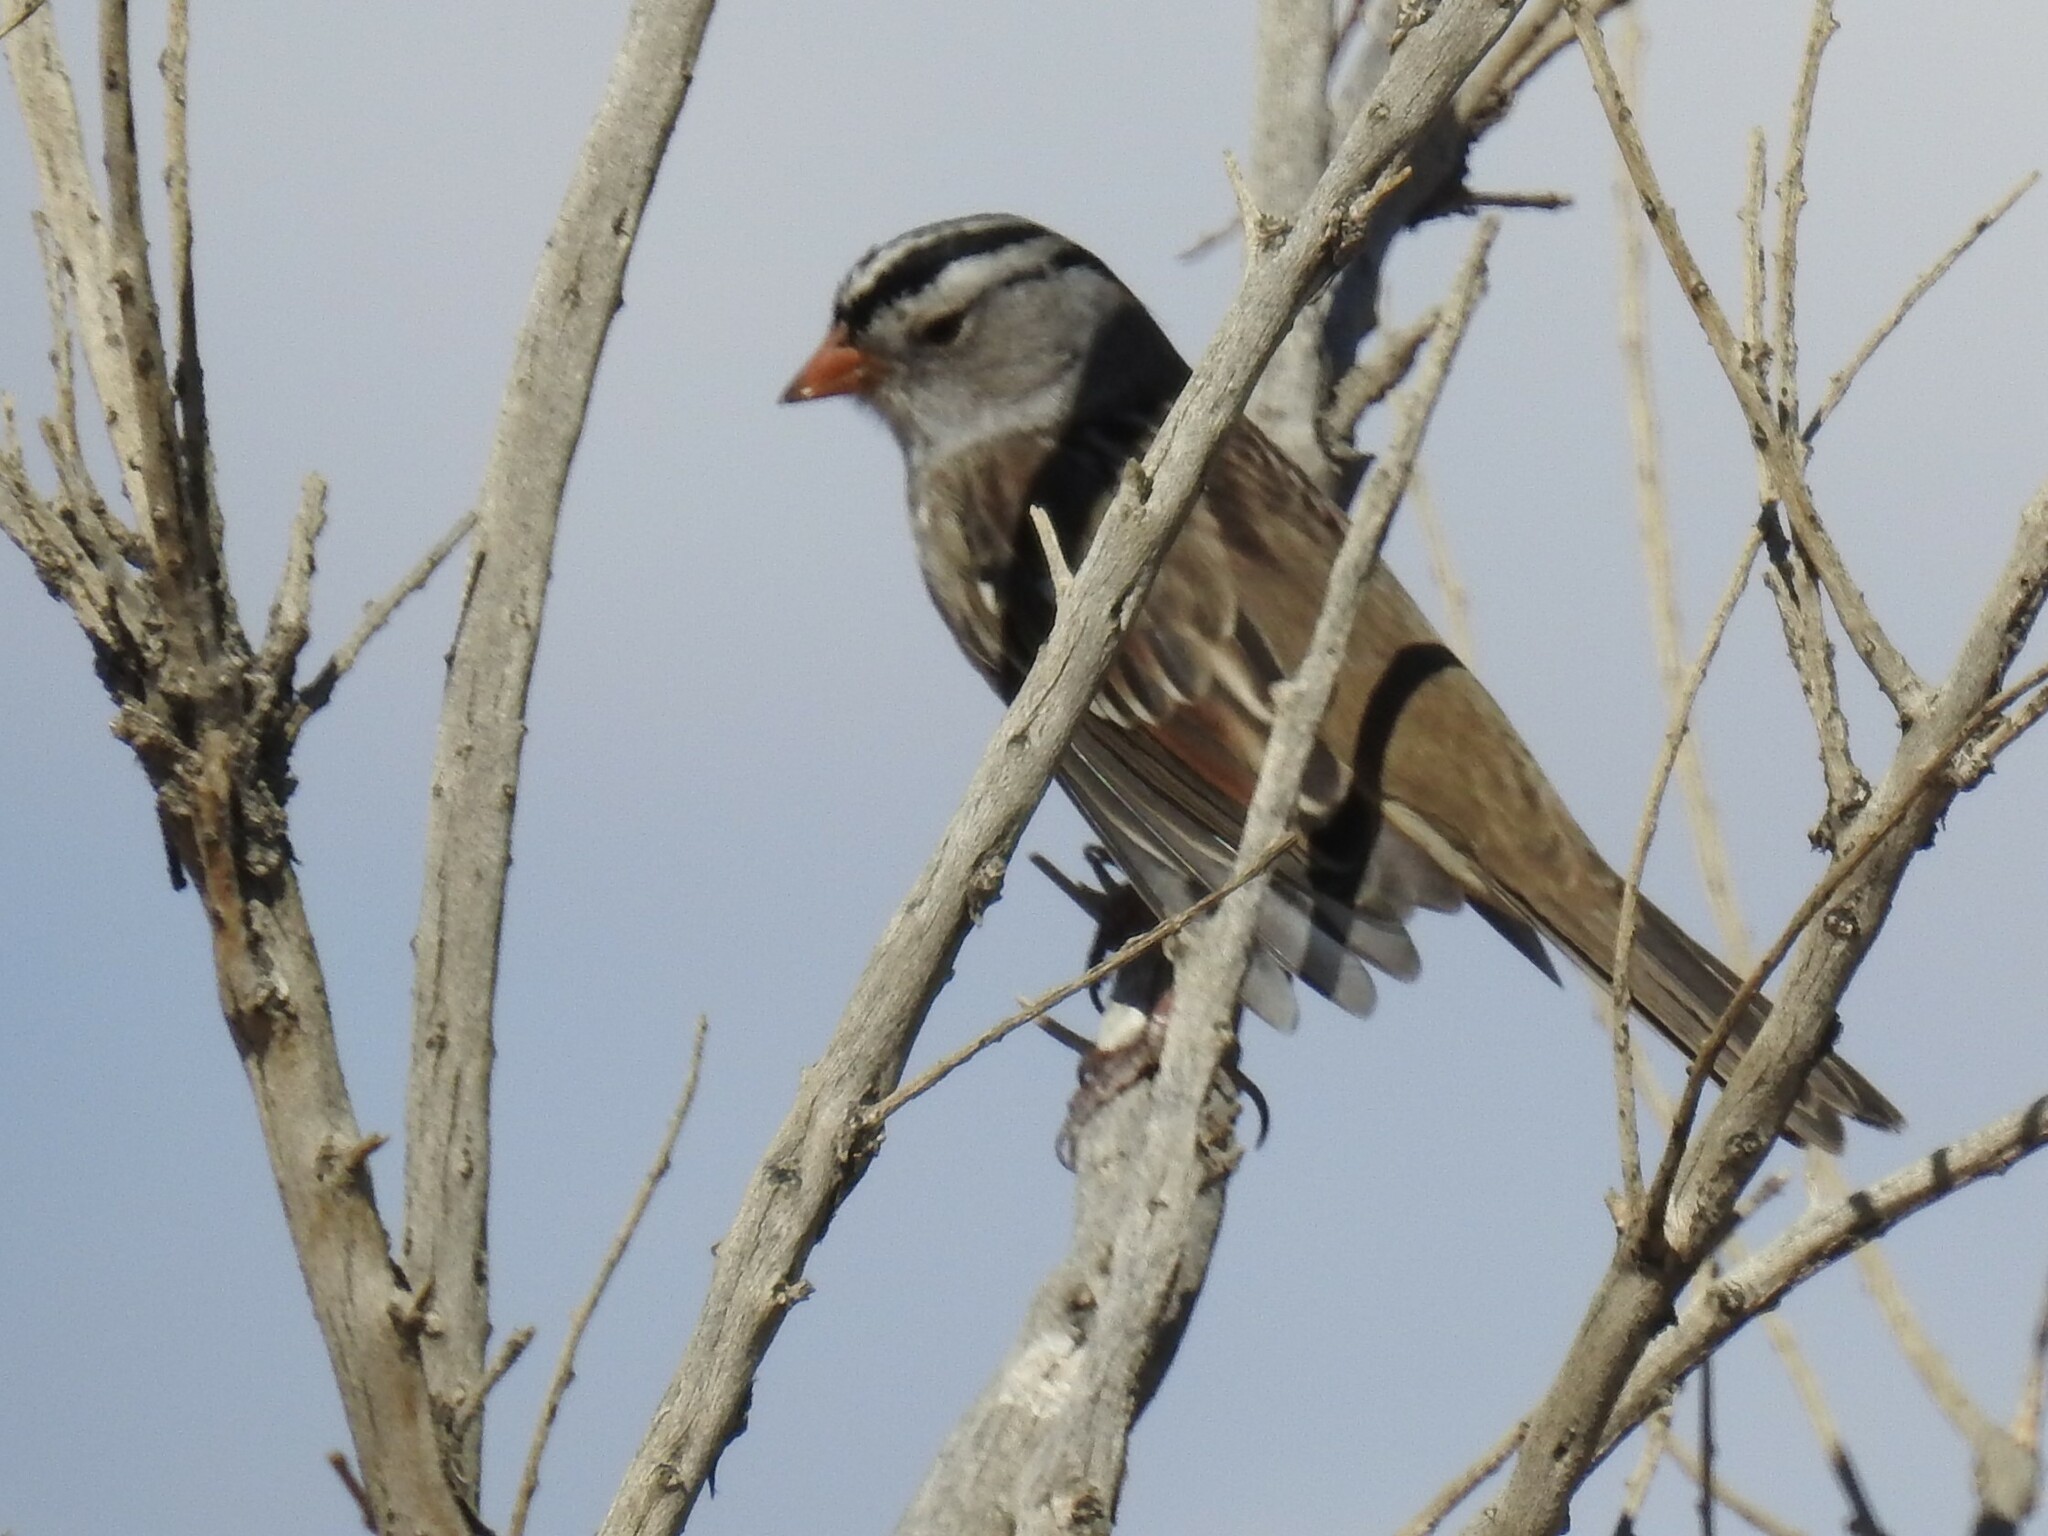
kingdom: Animalia
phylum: Chordata
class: Aves
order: Passeriformes
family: Passerellidae
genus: Zonotrichia
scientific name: Zonotrichia leucophrys
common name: White-crowned sparrow
